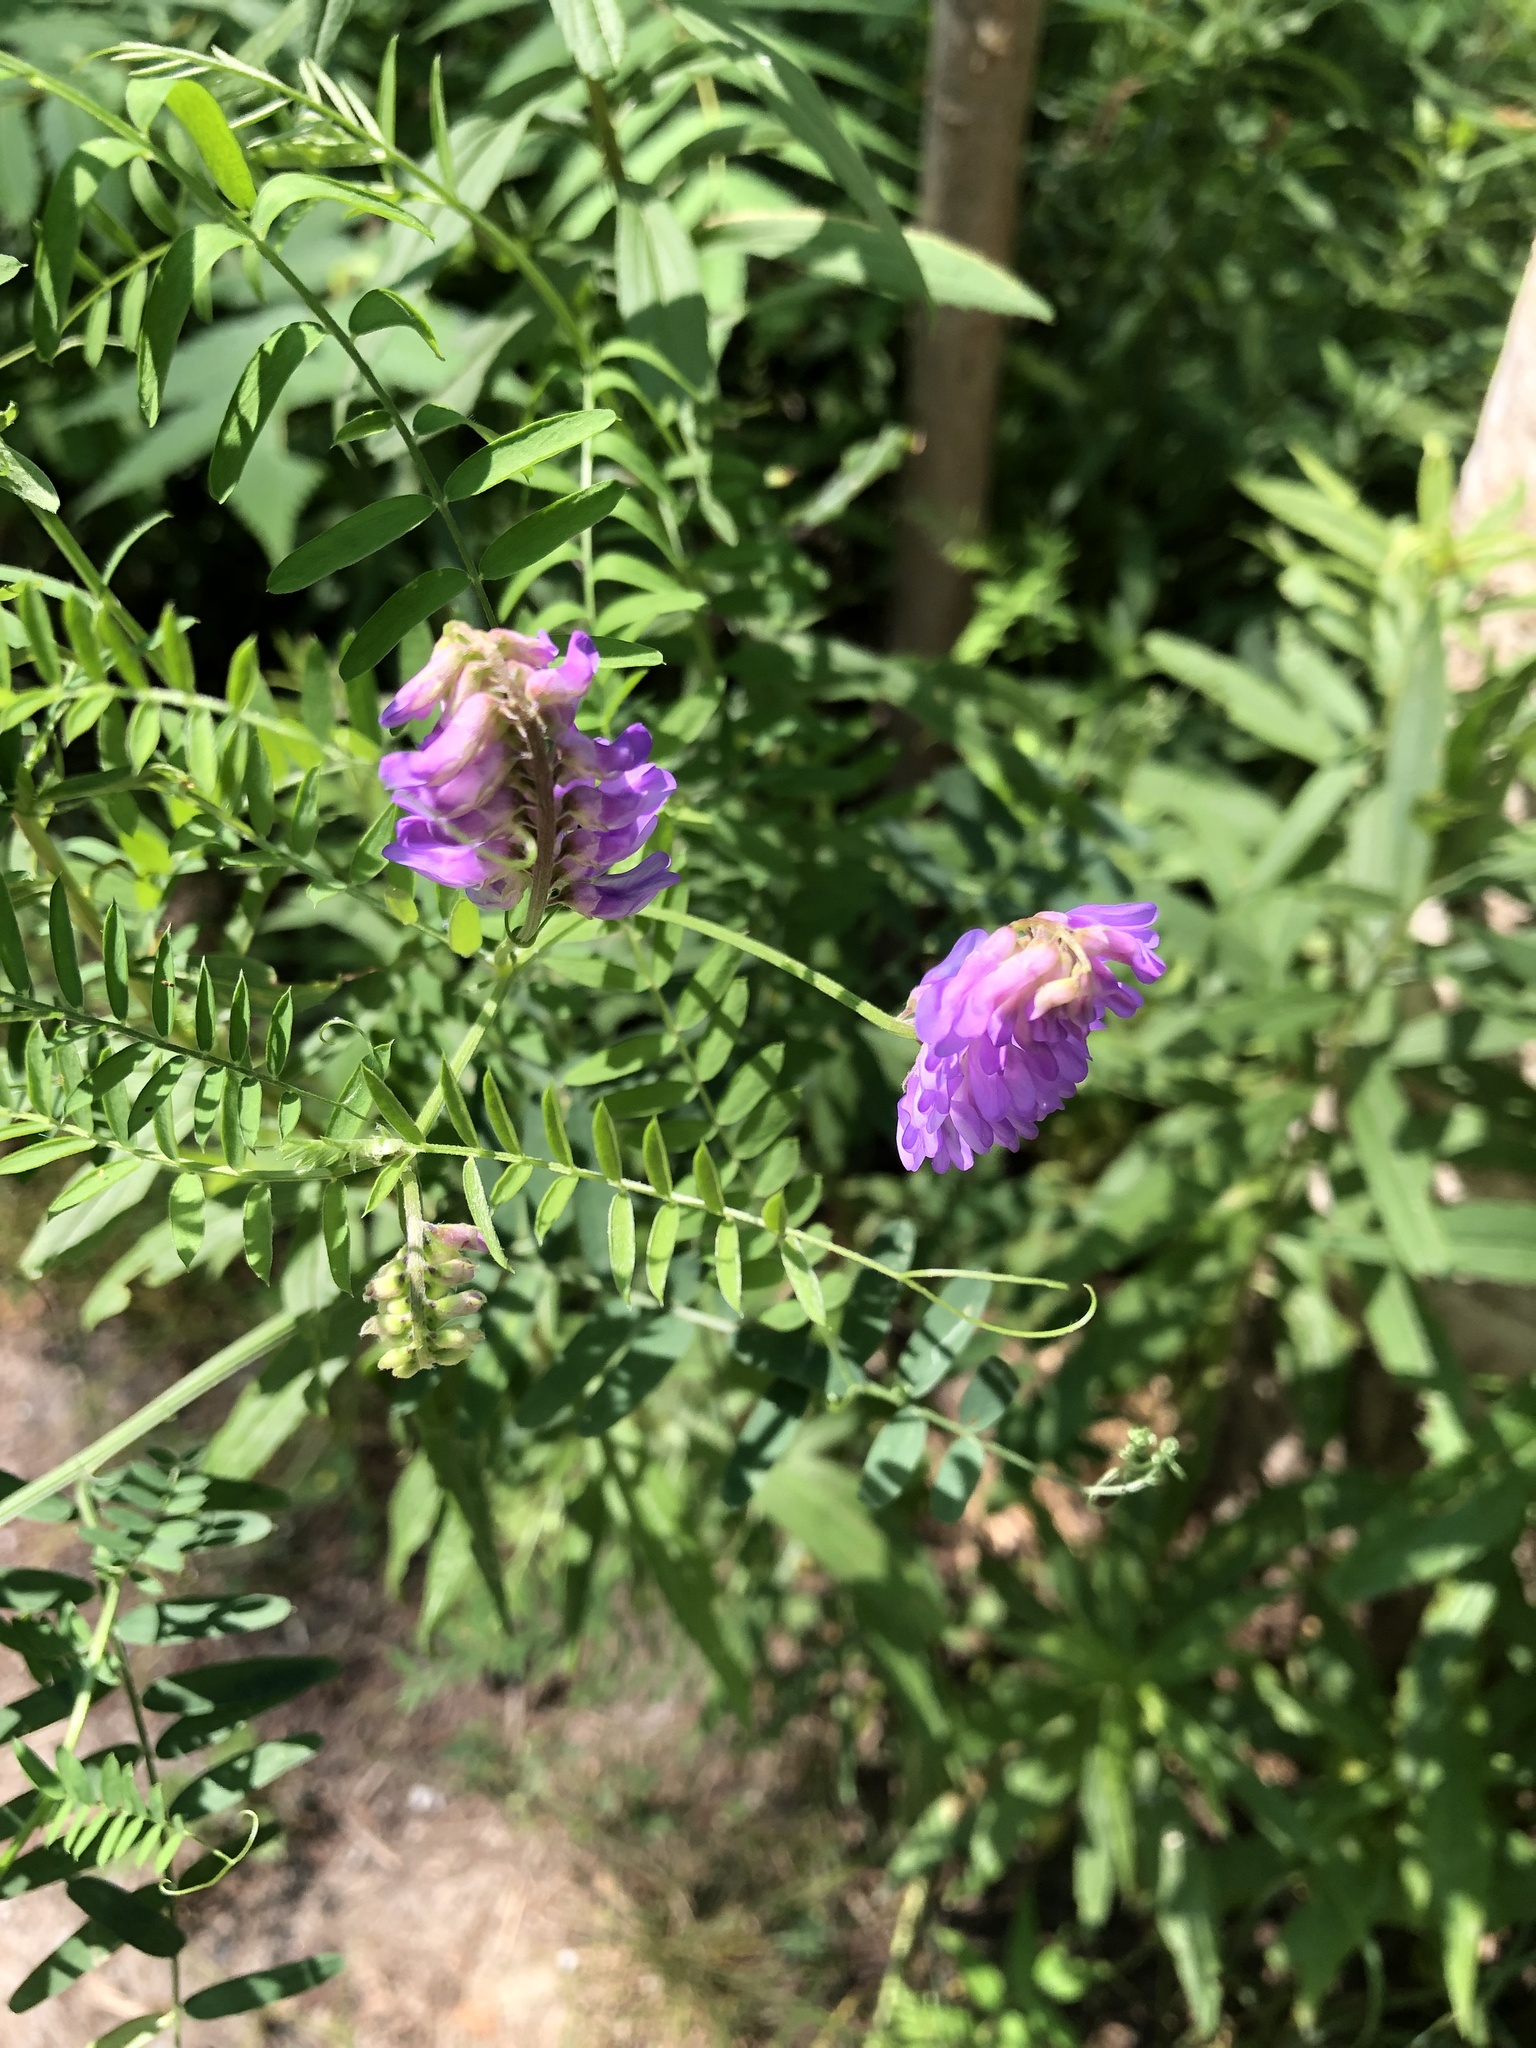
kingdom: Plantae
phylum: Tracheophyta
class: Magnoliopsida
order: Fabales
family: Fabaceae
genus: Vicia
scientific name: Vicia cracca
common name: Bird vetch
